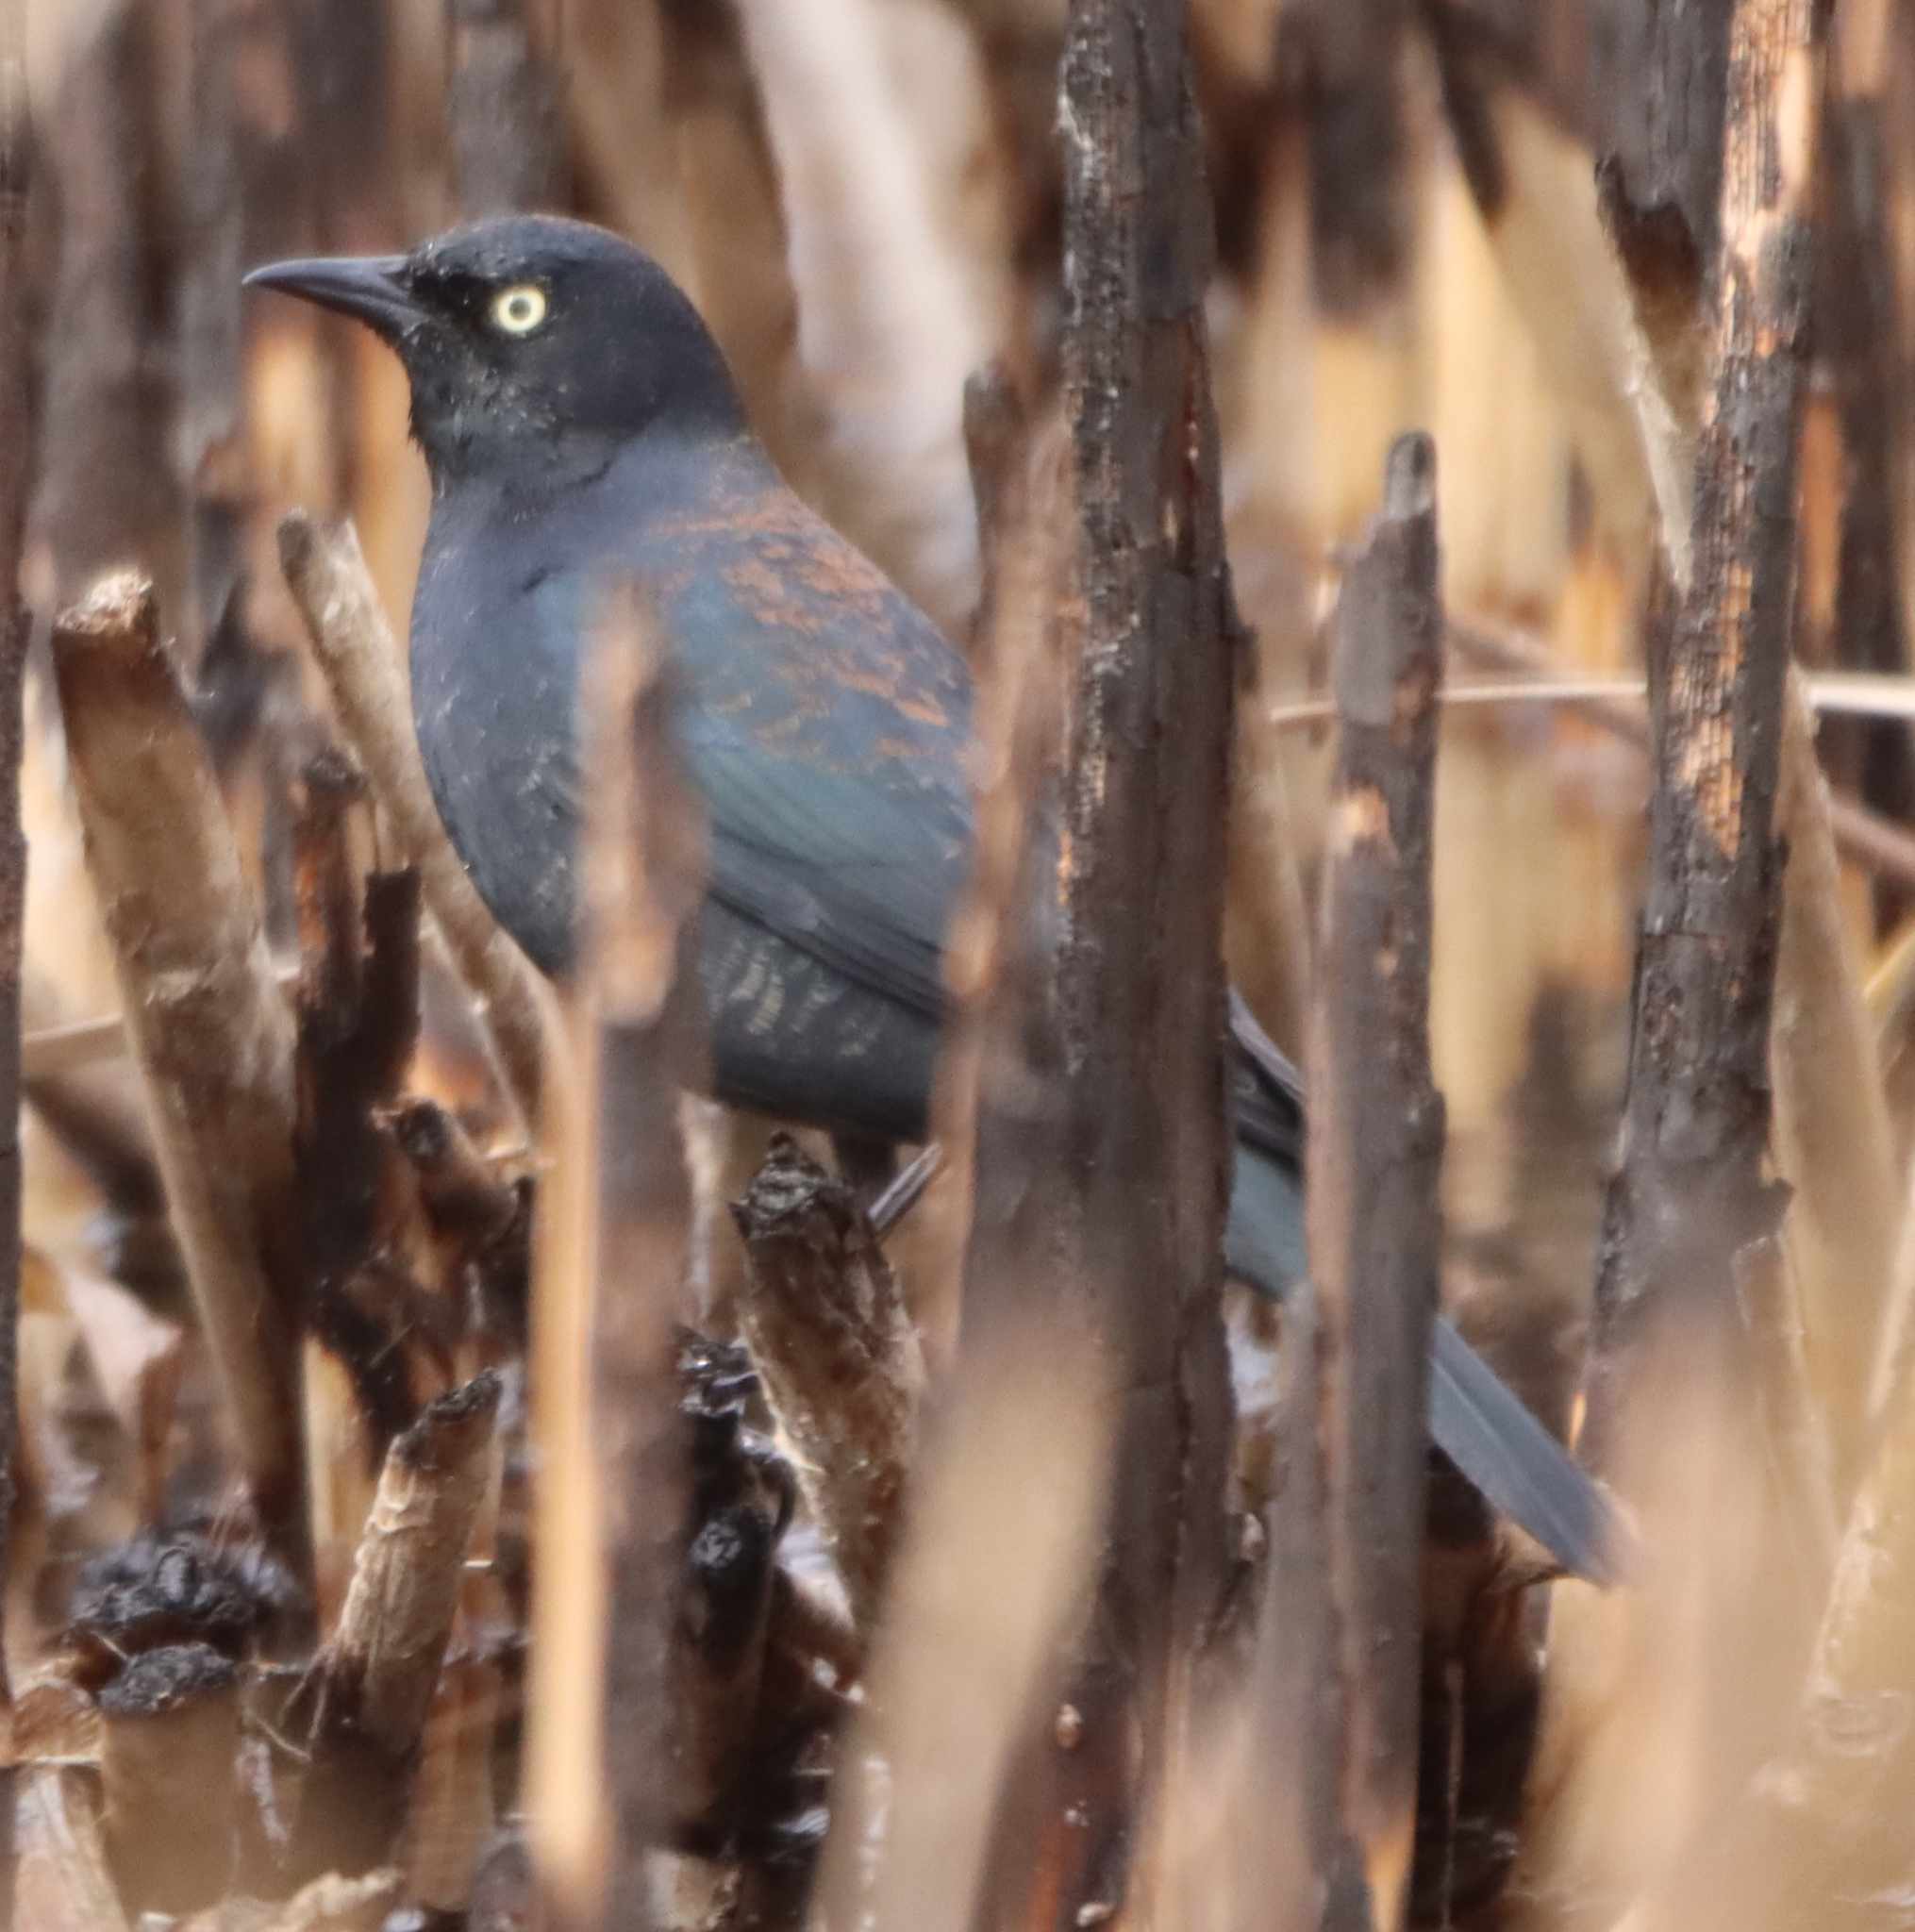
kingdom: Animalia
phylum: Chordata
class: Aves
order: Passeriformes
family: Icteridae
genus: Euphagus
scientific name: Euphagus carolinus
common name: Rusty blackbird
